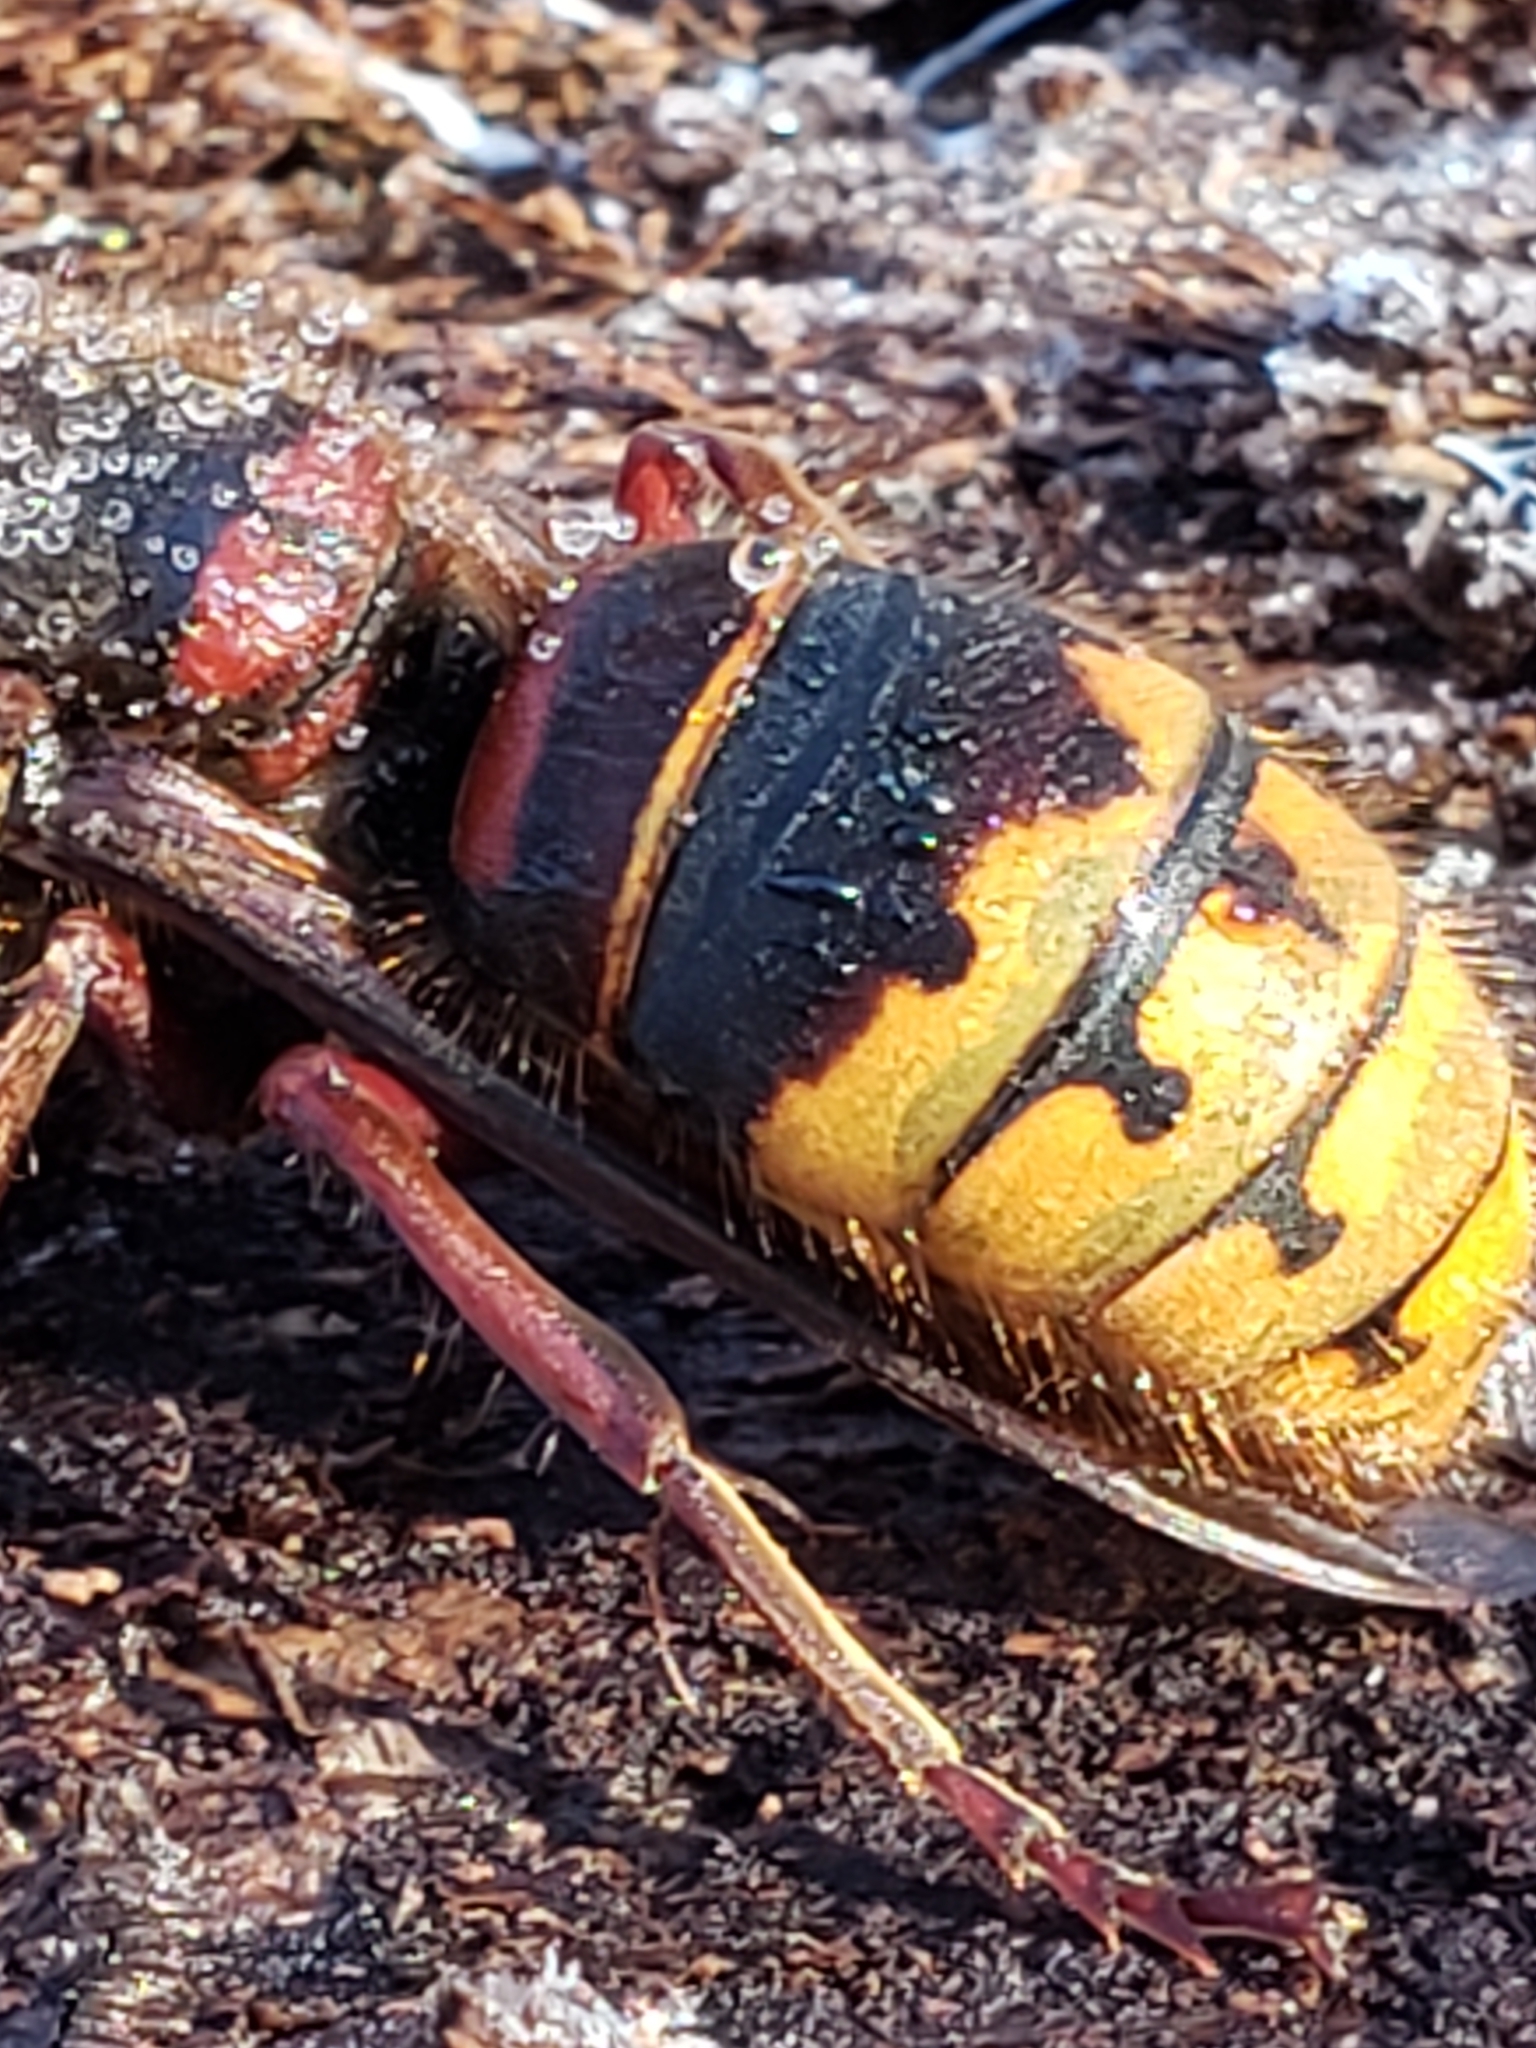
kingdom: Animalia
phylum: Arthropoda
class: Insecta
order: Hymenoptera
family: Vespidae
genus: Vespa
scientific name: Vespa crabro
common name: Hornet
